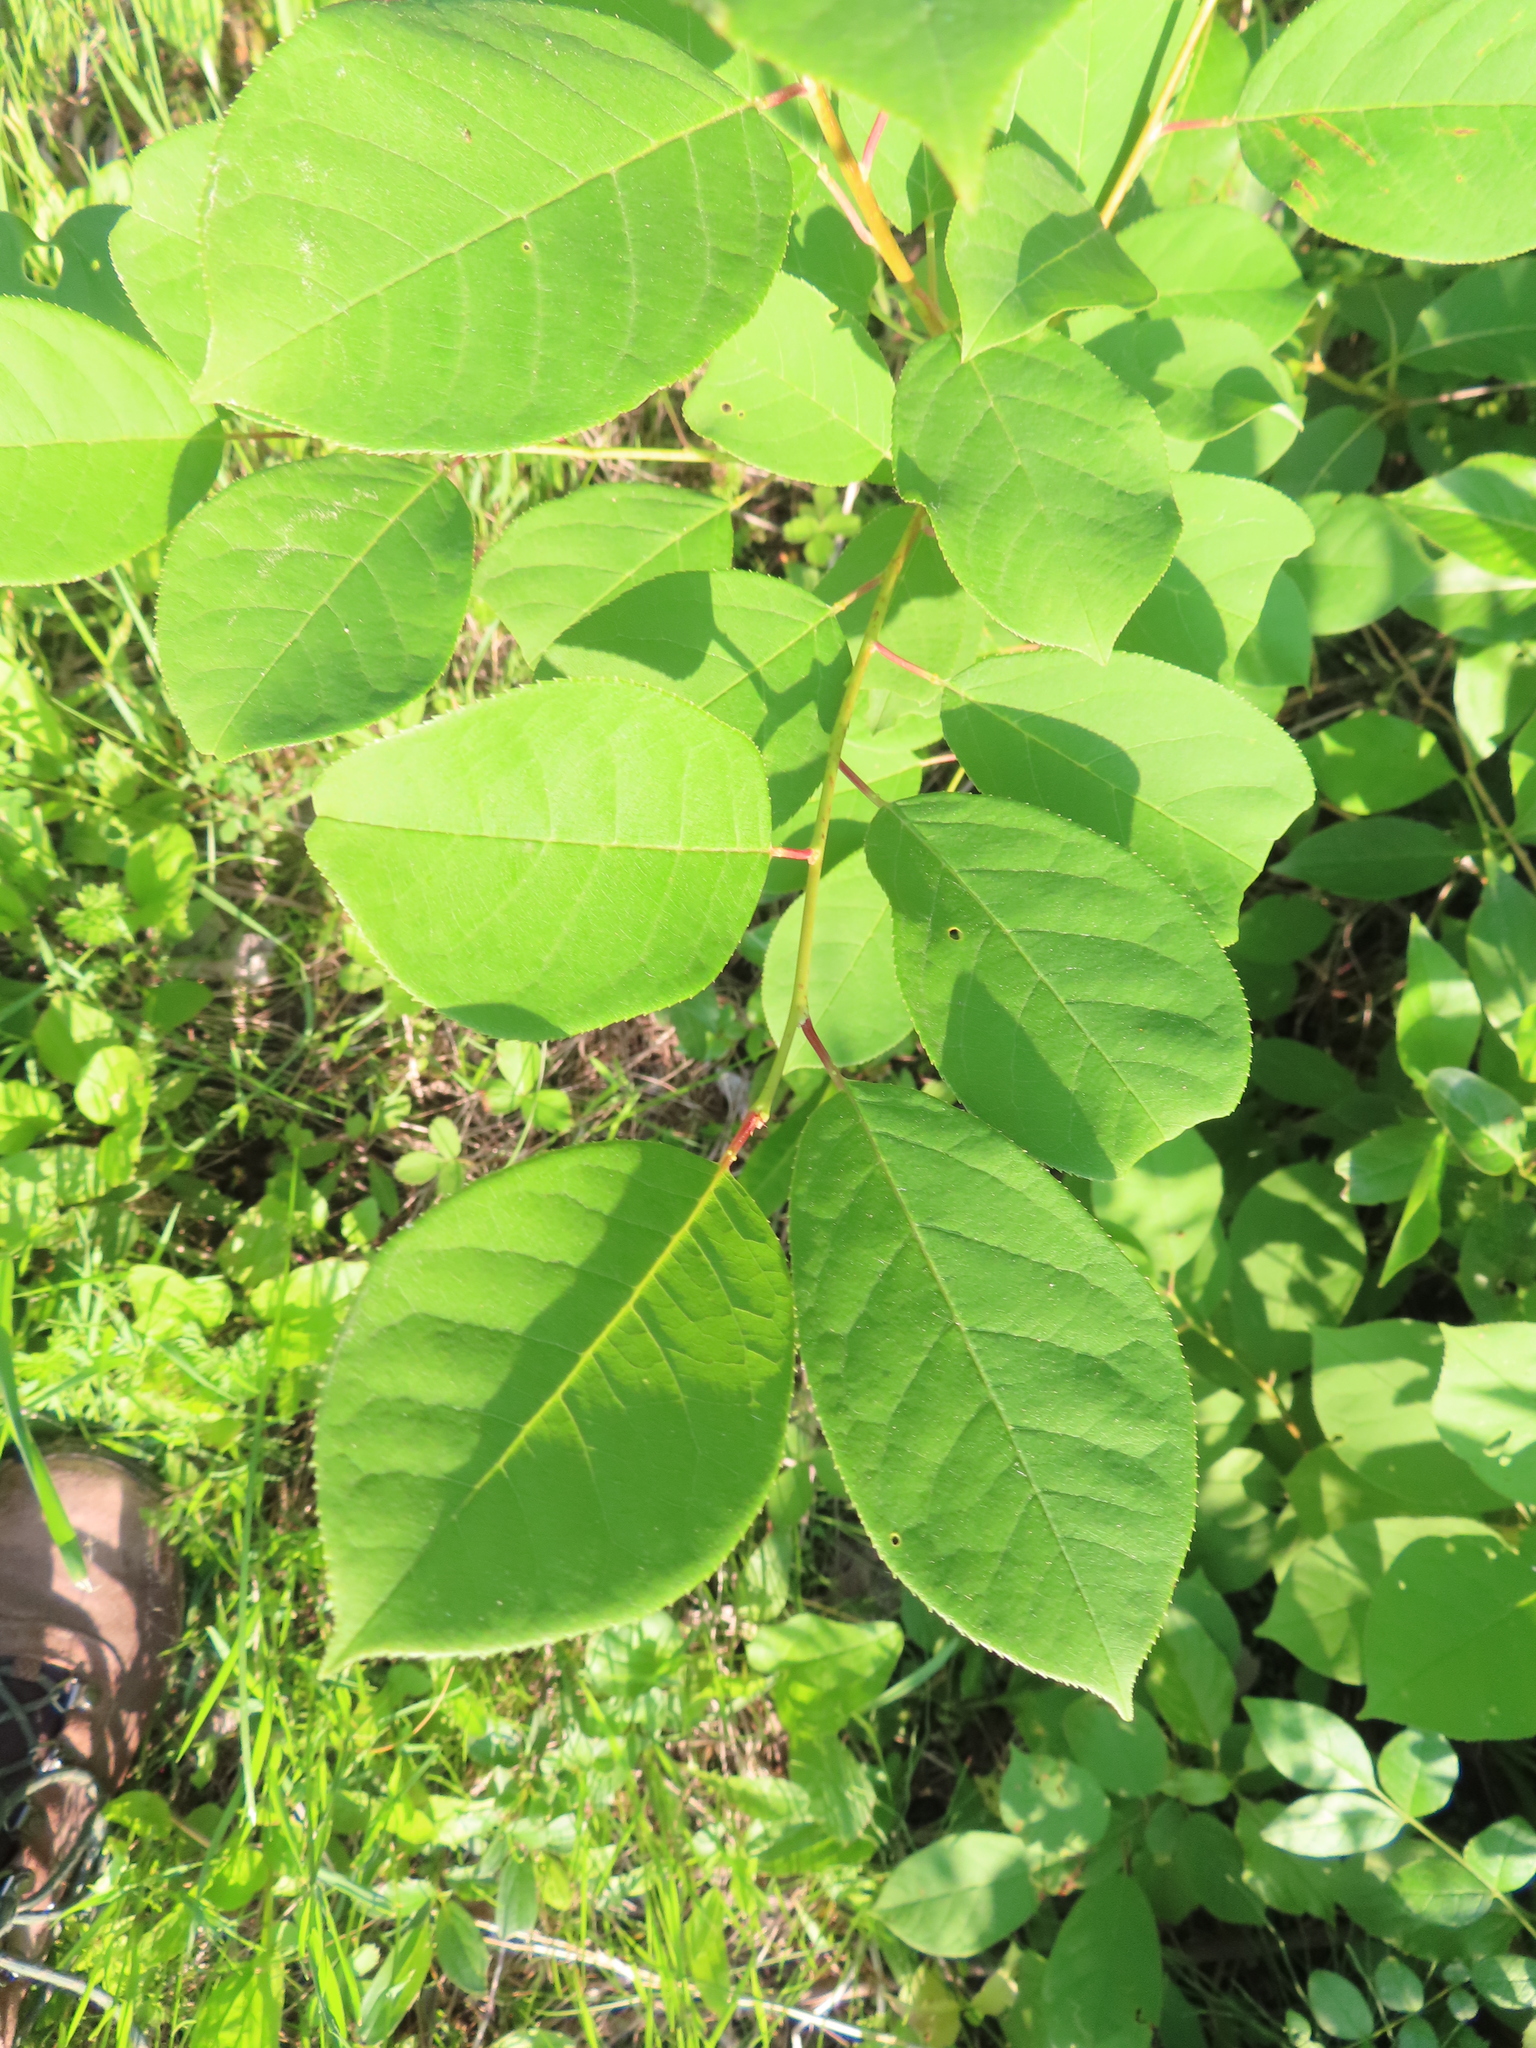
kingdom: Plantae
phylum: Tracheophyta
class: Magnoliopsida
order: Rosales
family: Rosaceae
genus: Prunus
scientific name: Prunus virginiana
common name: Chokecherry
